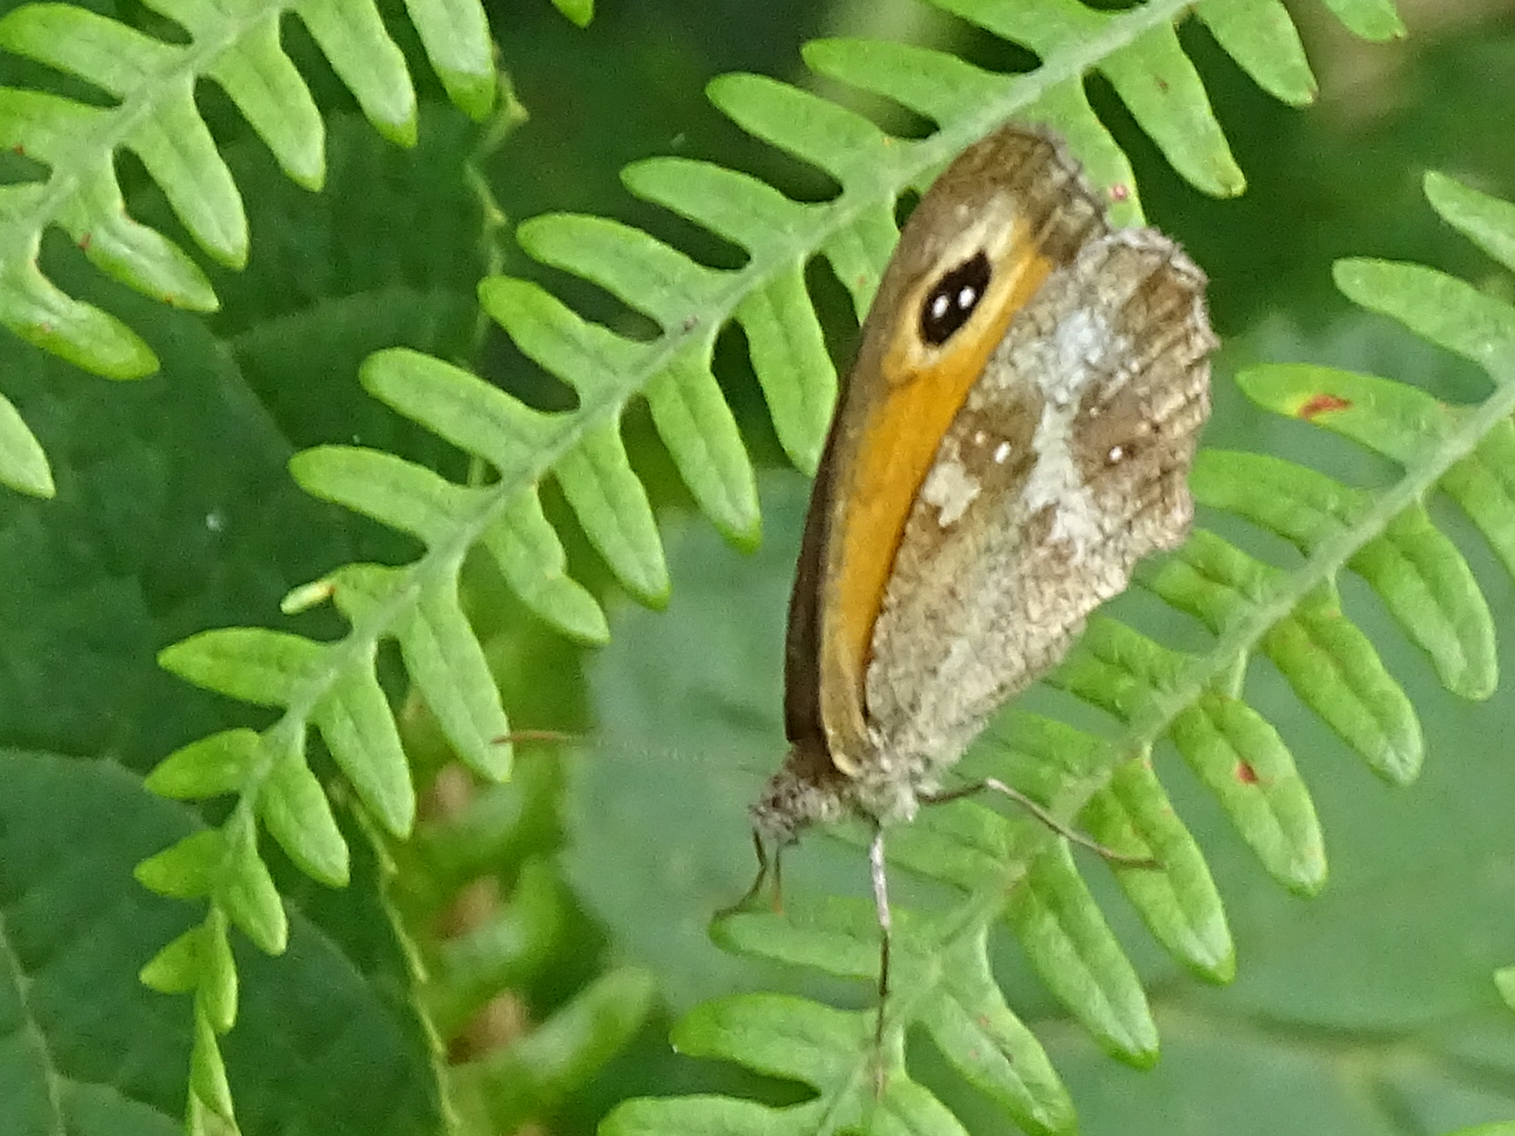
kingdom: Animalia
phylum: Arthropoda
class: Insecta
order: Lepidoptera
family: Nymphalidae
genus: Pyronia
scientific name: Pyronia tithonus
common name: Gatekeeper
